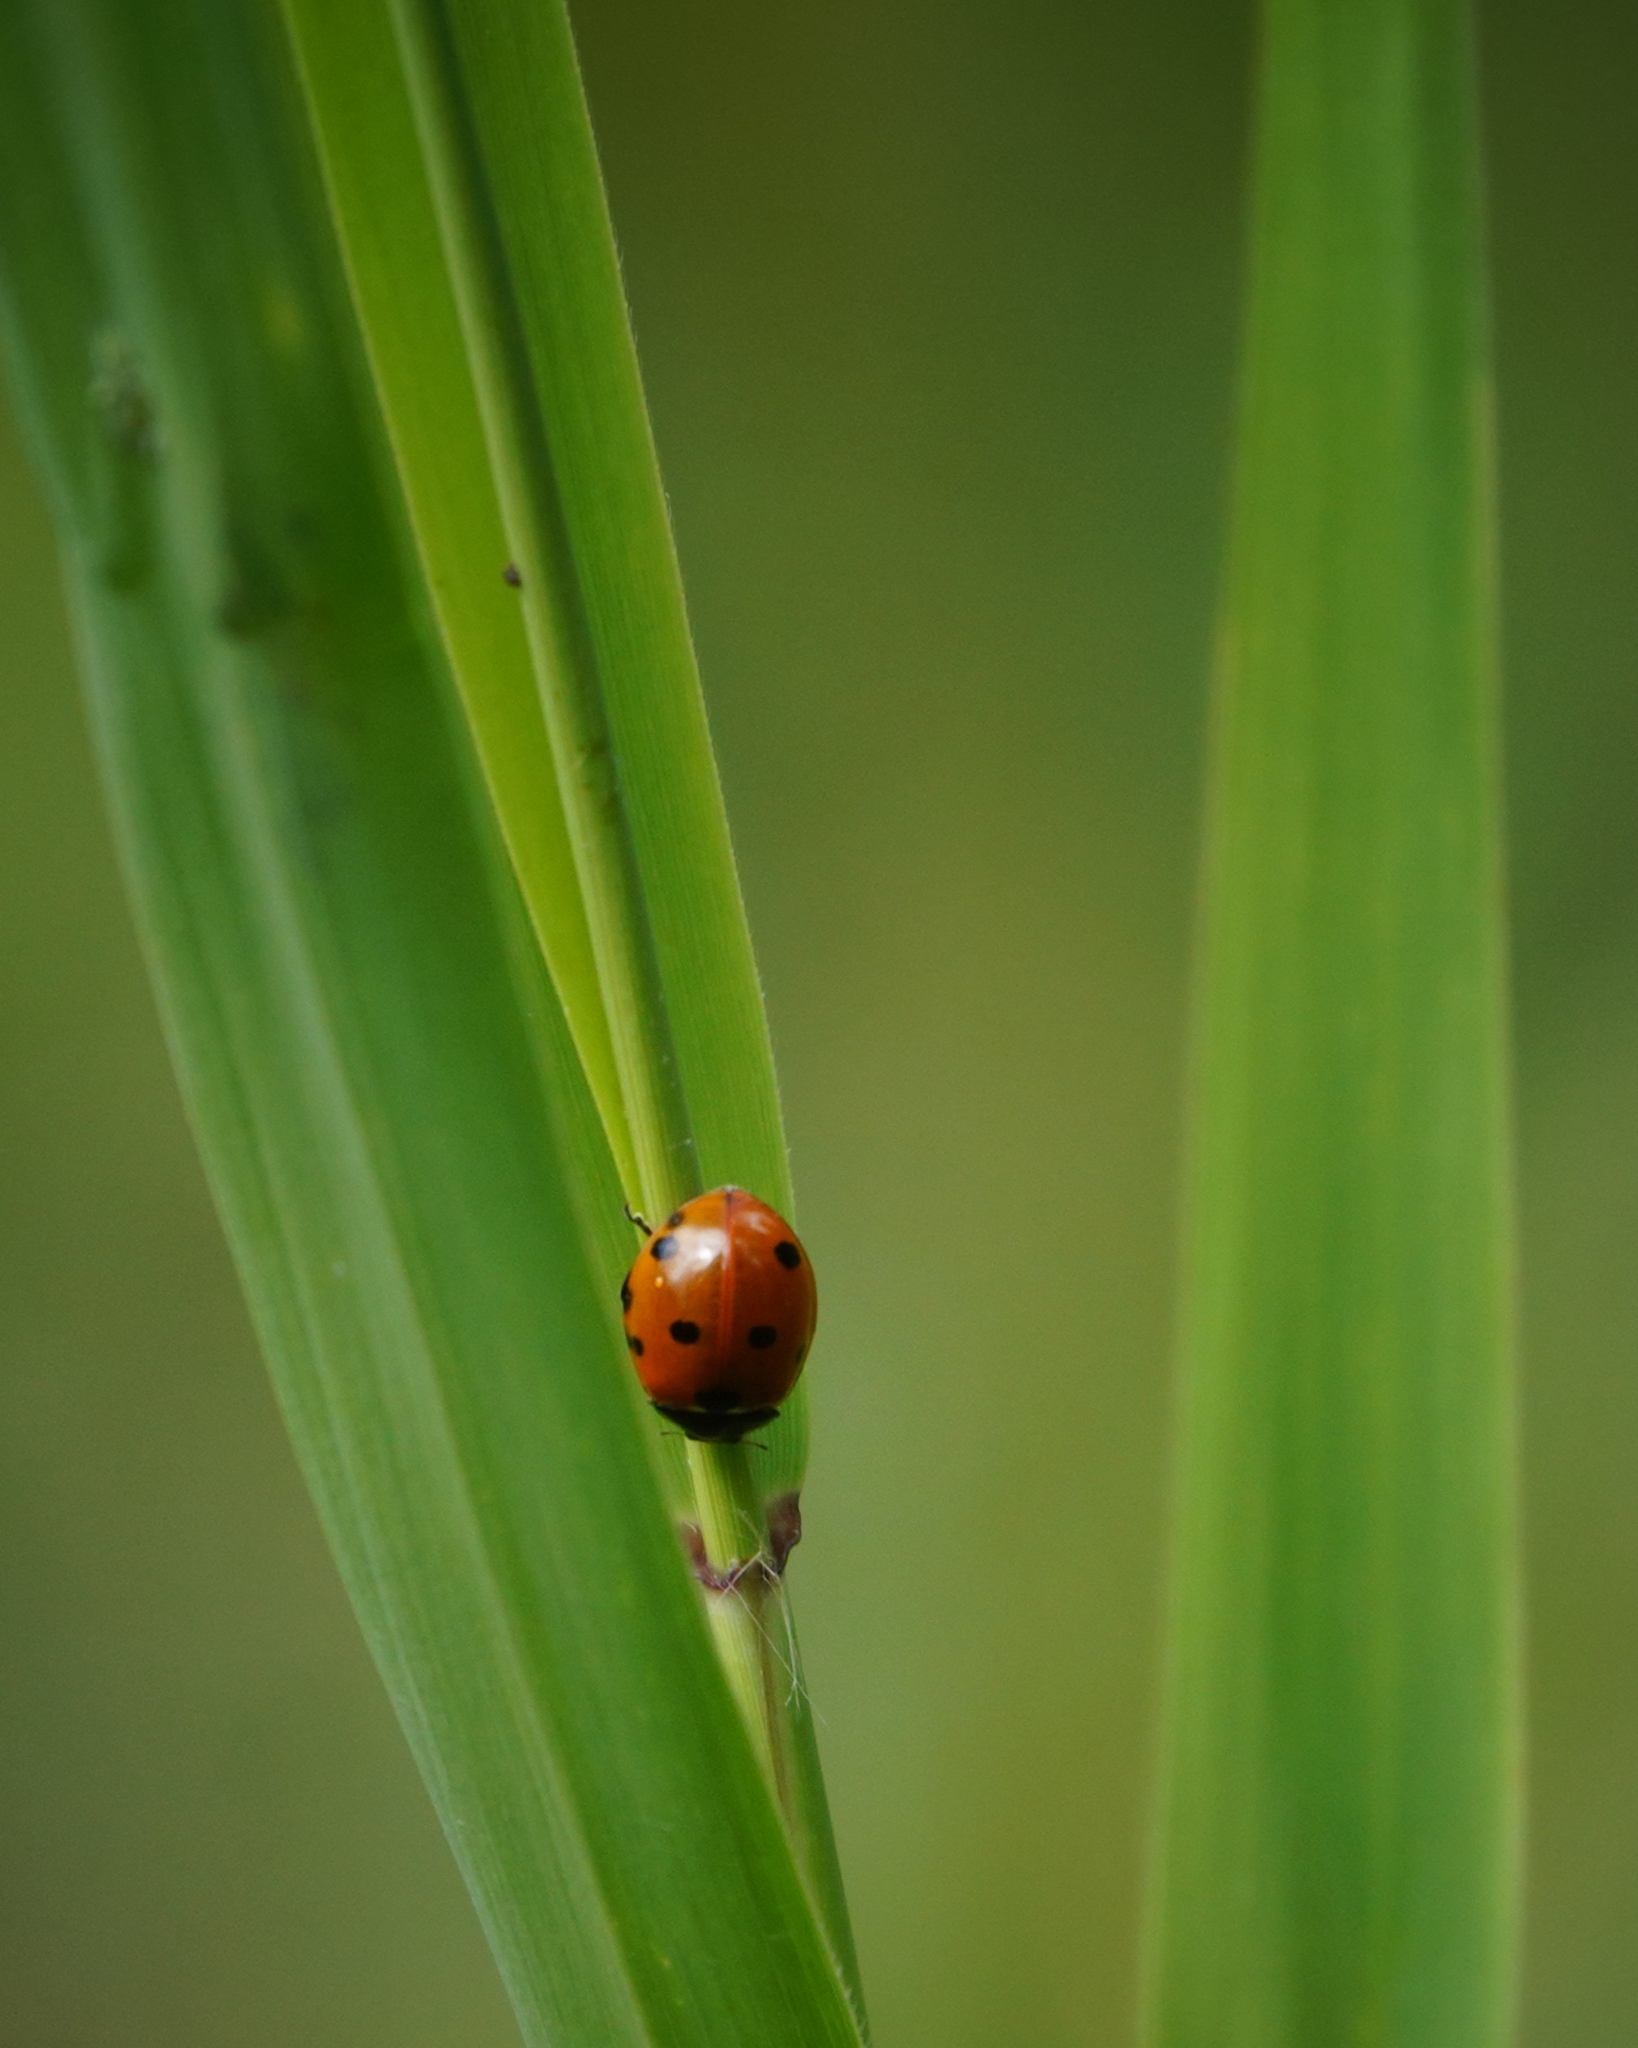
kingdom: Animalia
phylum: Arthropoda
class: Insecta
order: Coleoptera
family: Coccinellidae
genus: Coccinella
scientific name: Coccinella septempunctata
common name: Sevenspotted lady beetle
